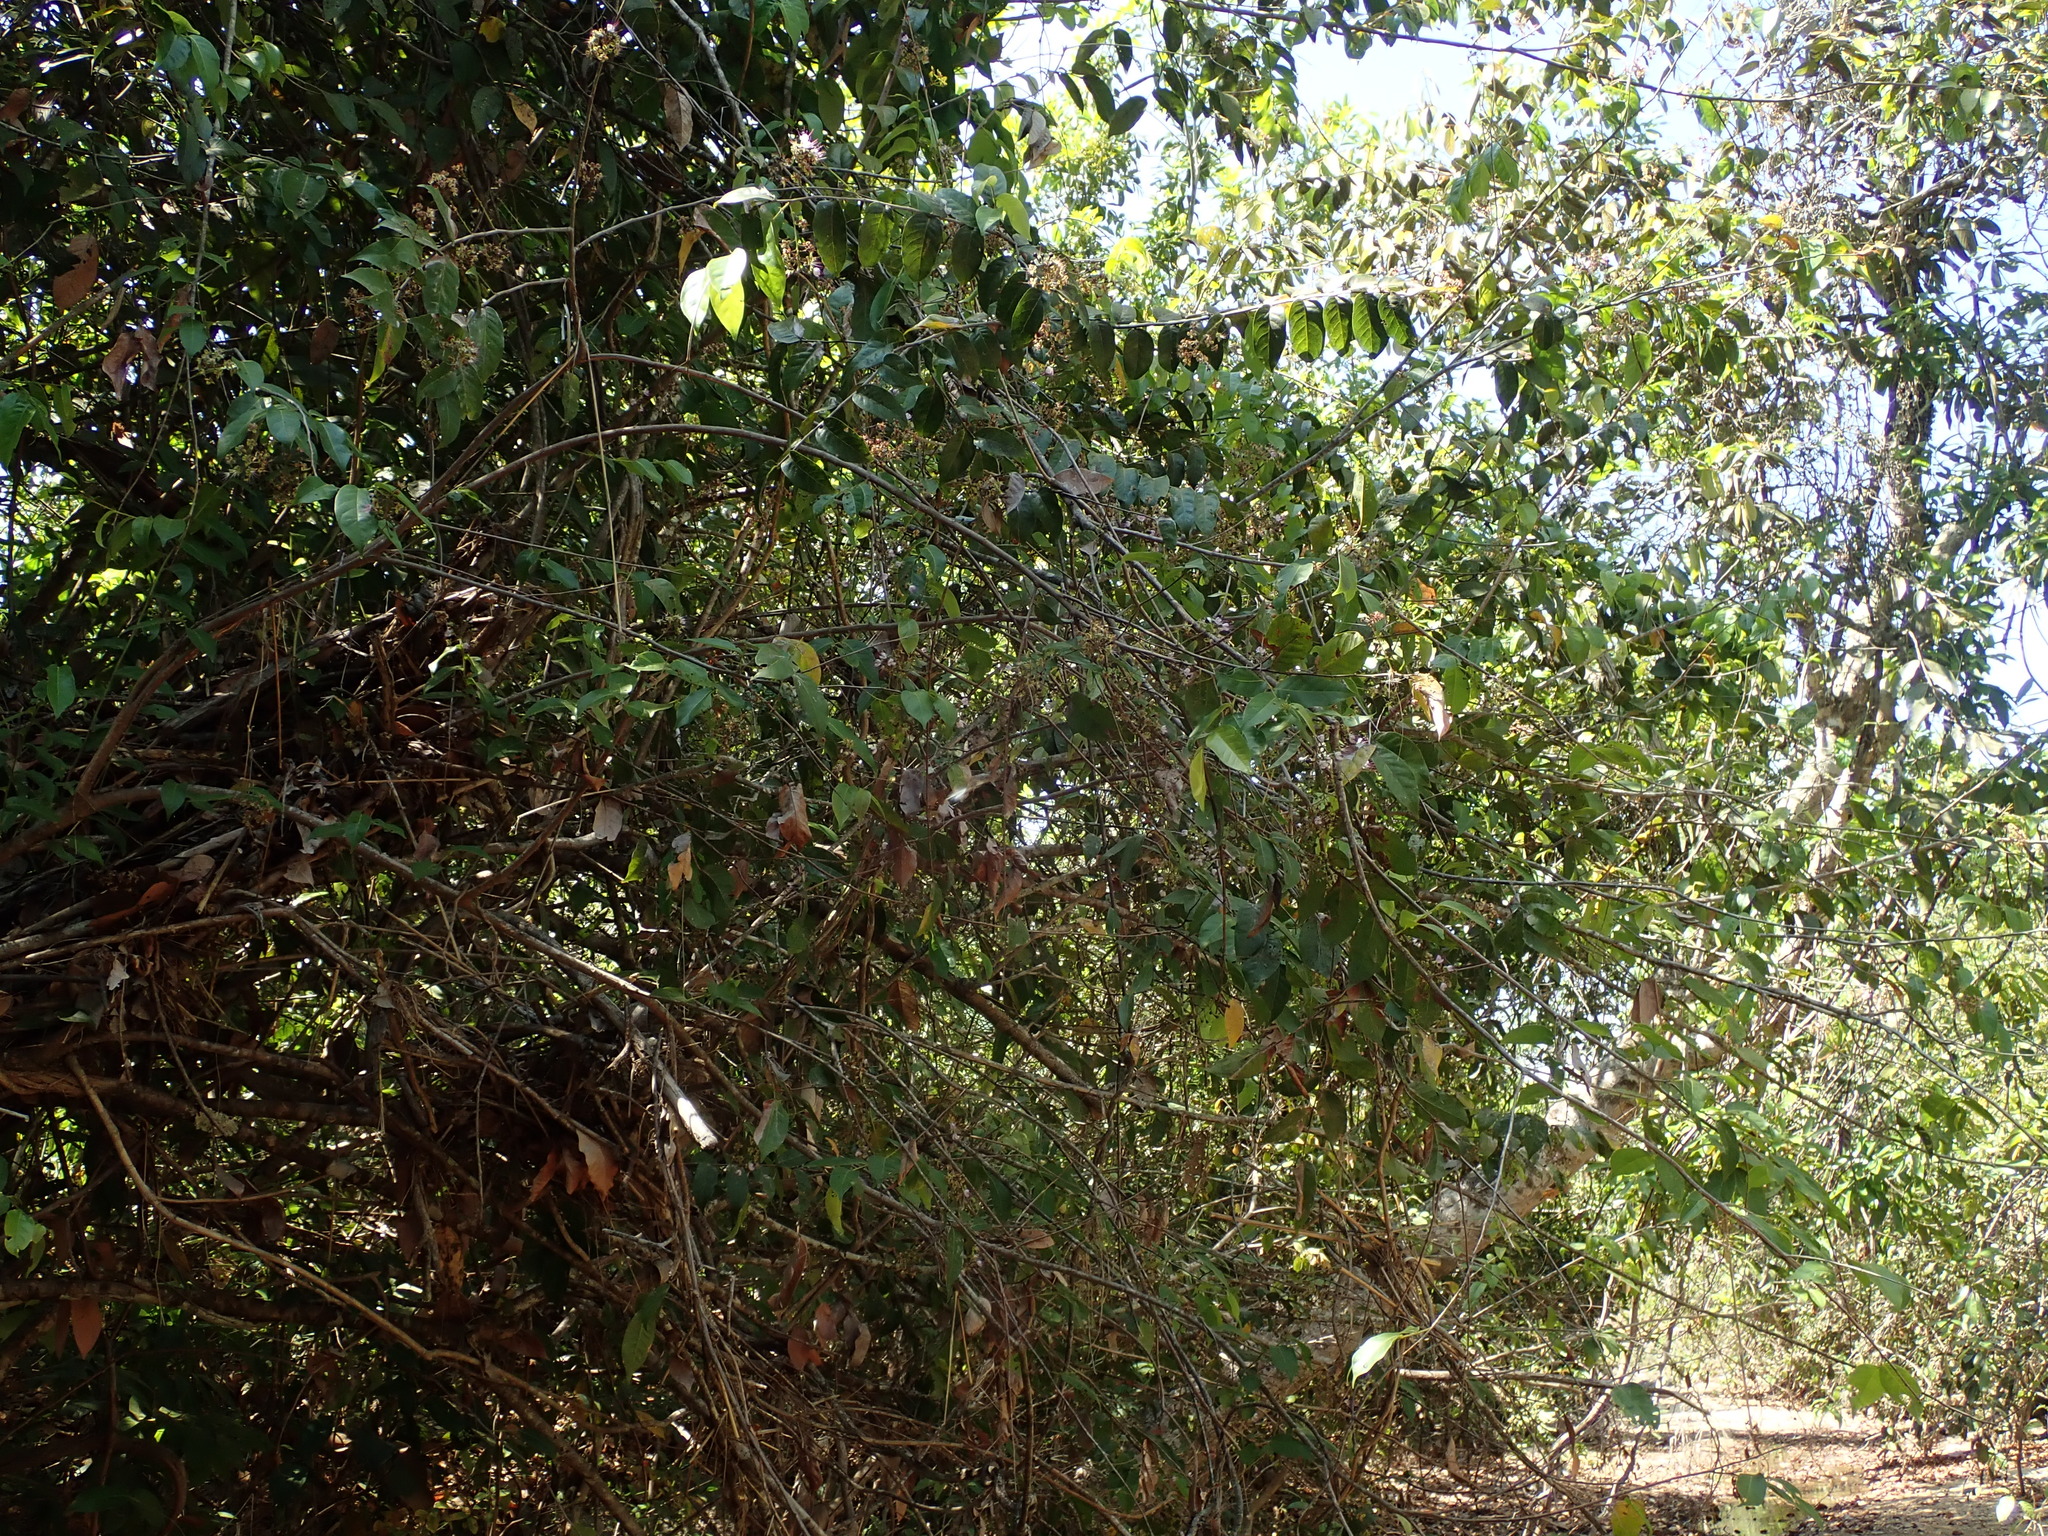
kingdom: Plantae
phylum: Tracheophyta
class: Magnoliopsida
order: Malpighiales
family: Chrysobalanaceae
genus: Hirtella
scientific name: Hirtella gracilipes
